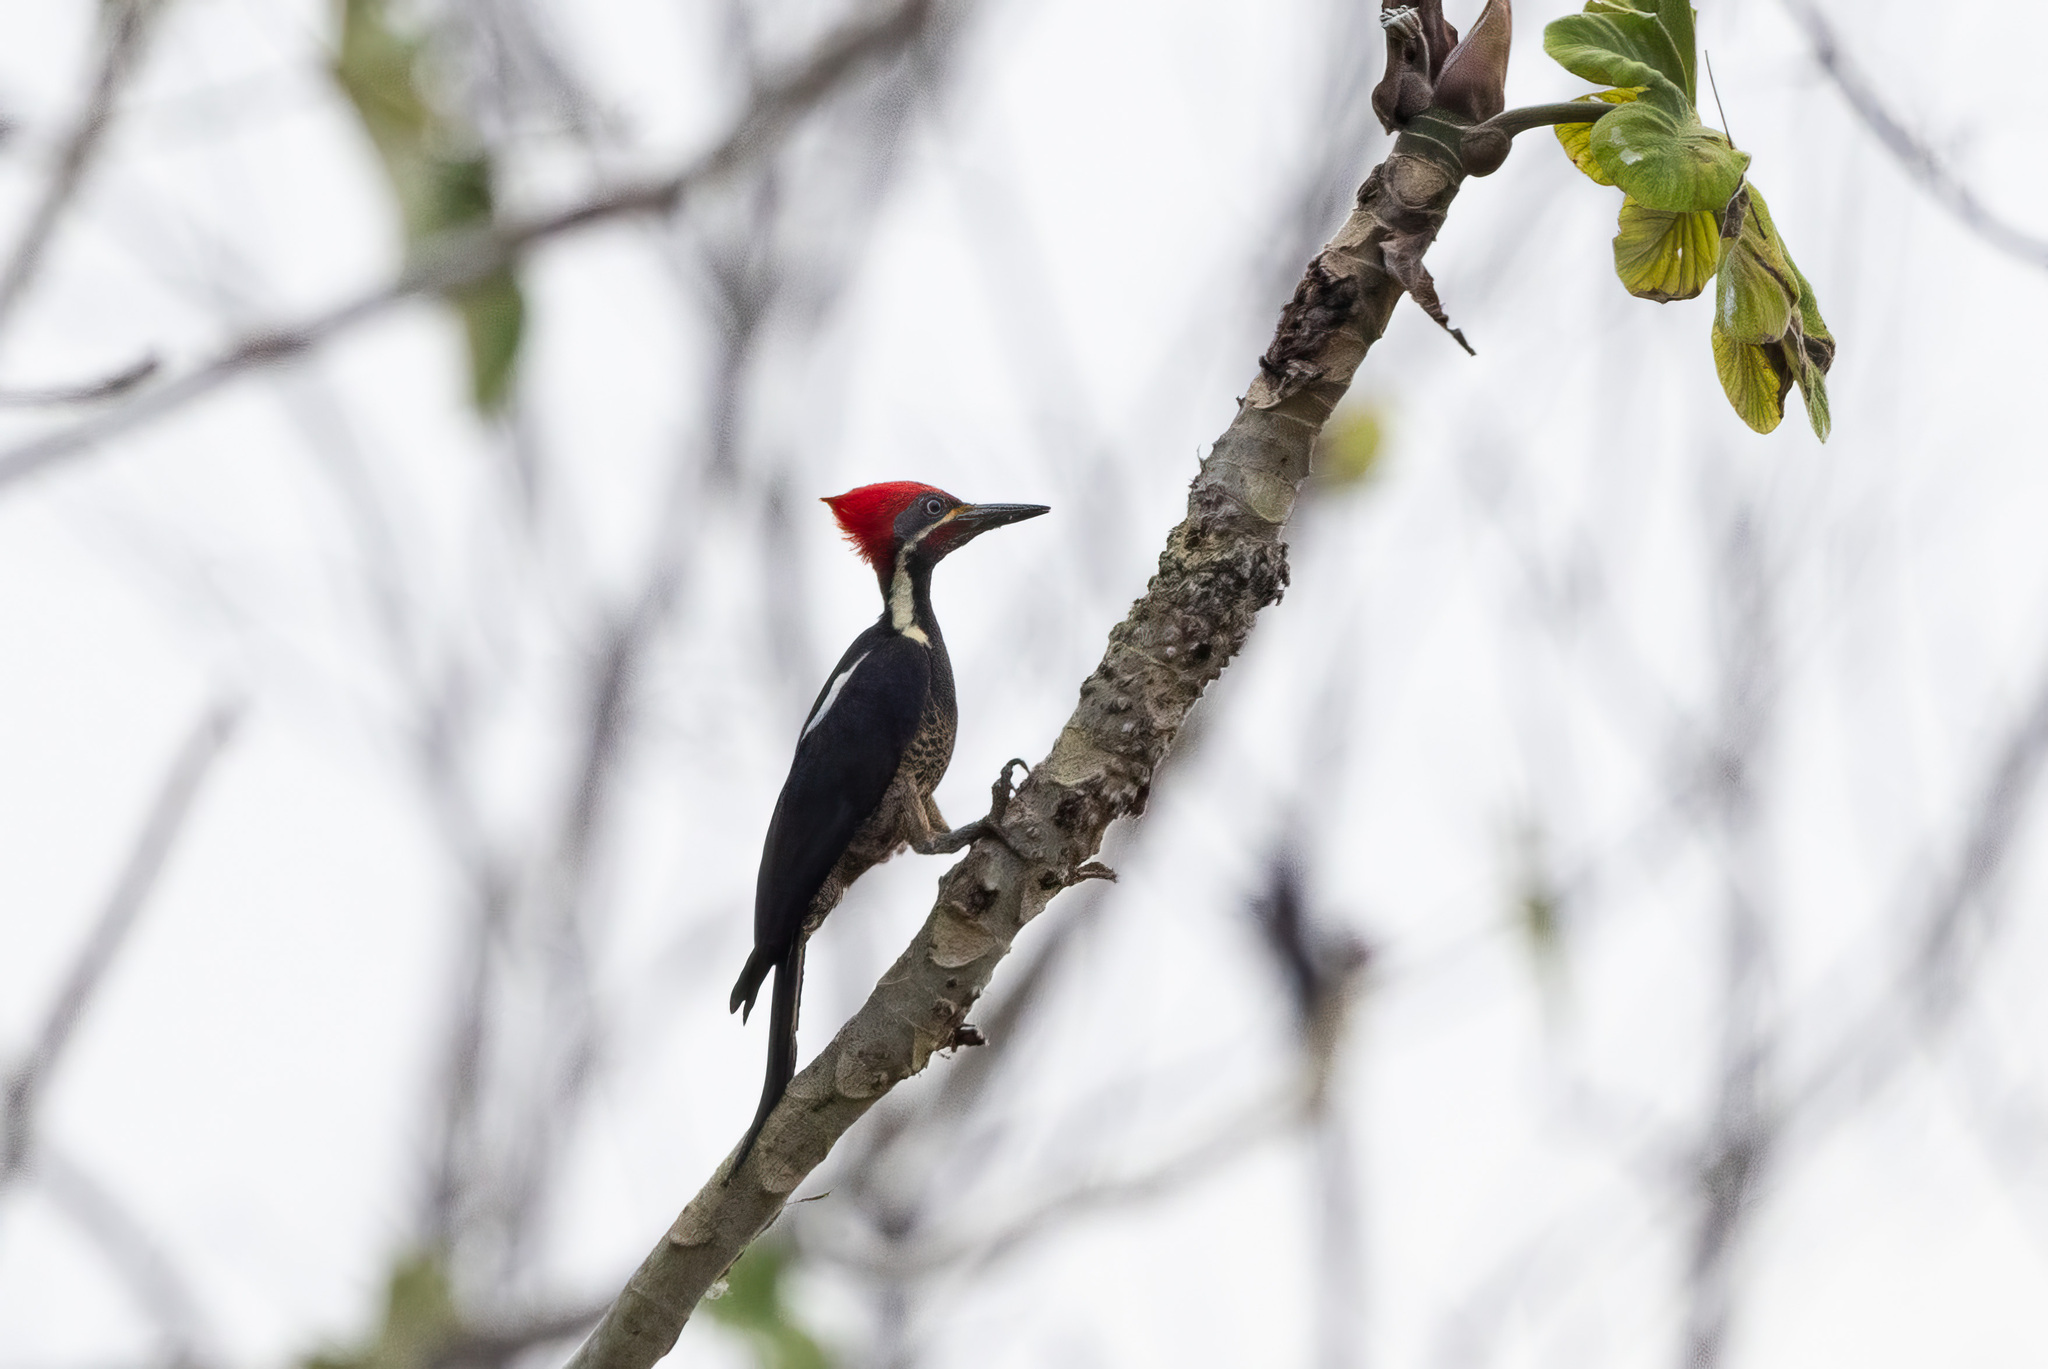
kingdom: Animalia
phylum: Chordata
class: Aves
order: Piciformes
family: Picidae
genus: Dryocopus
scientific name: Dryocopus lineatus
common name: Lineated woodpecker
